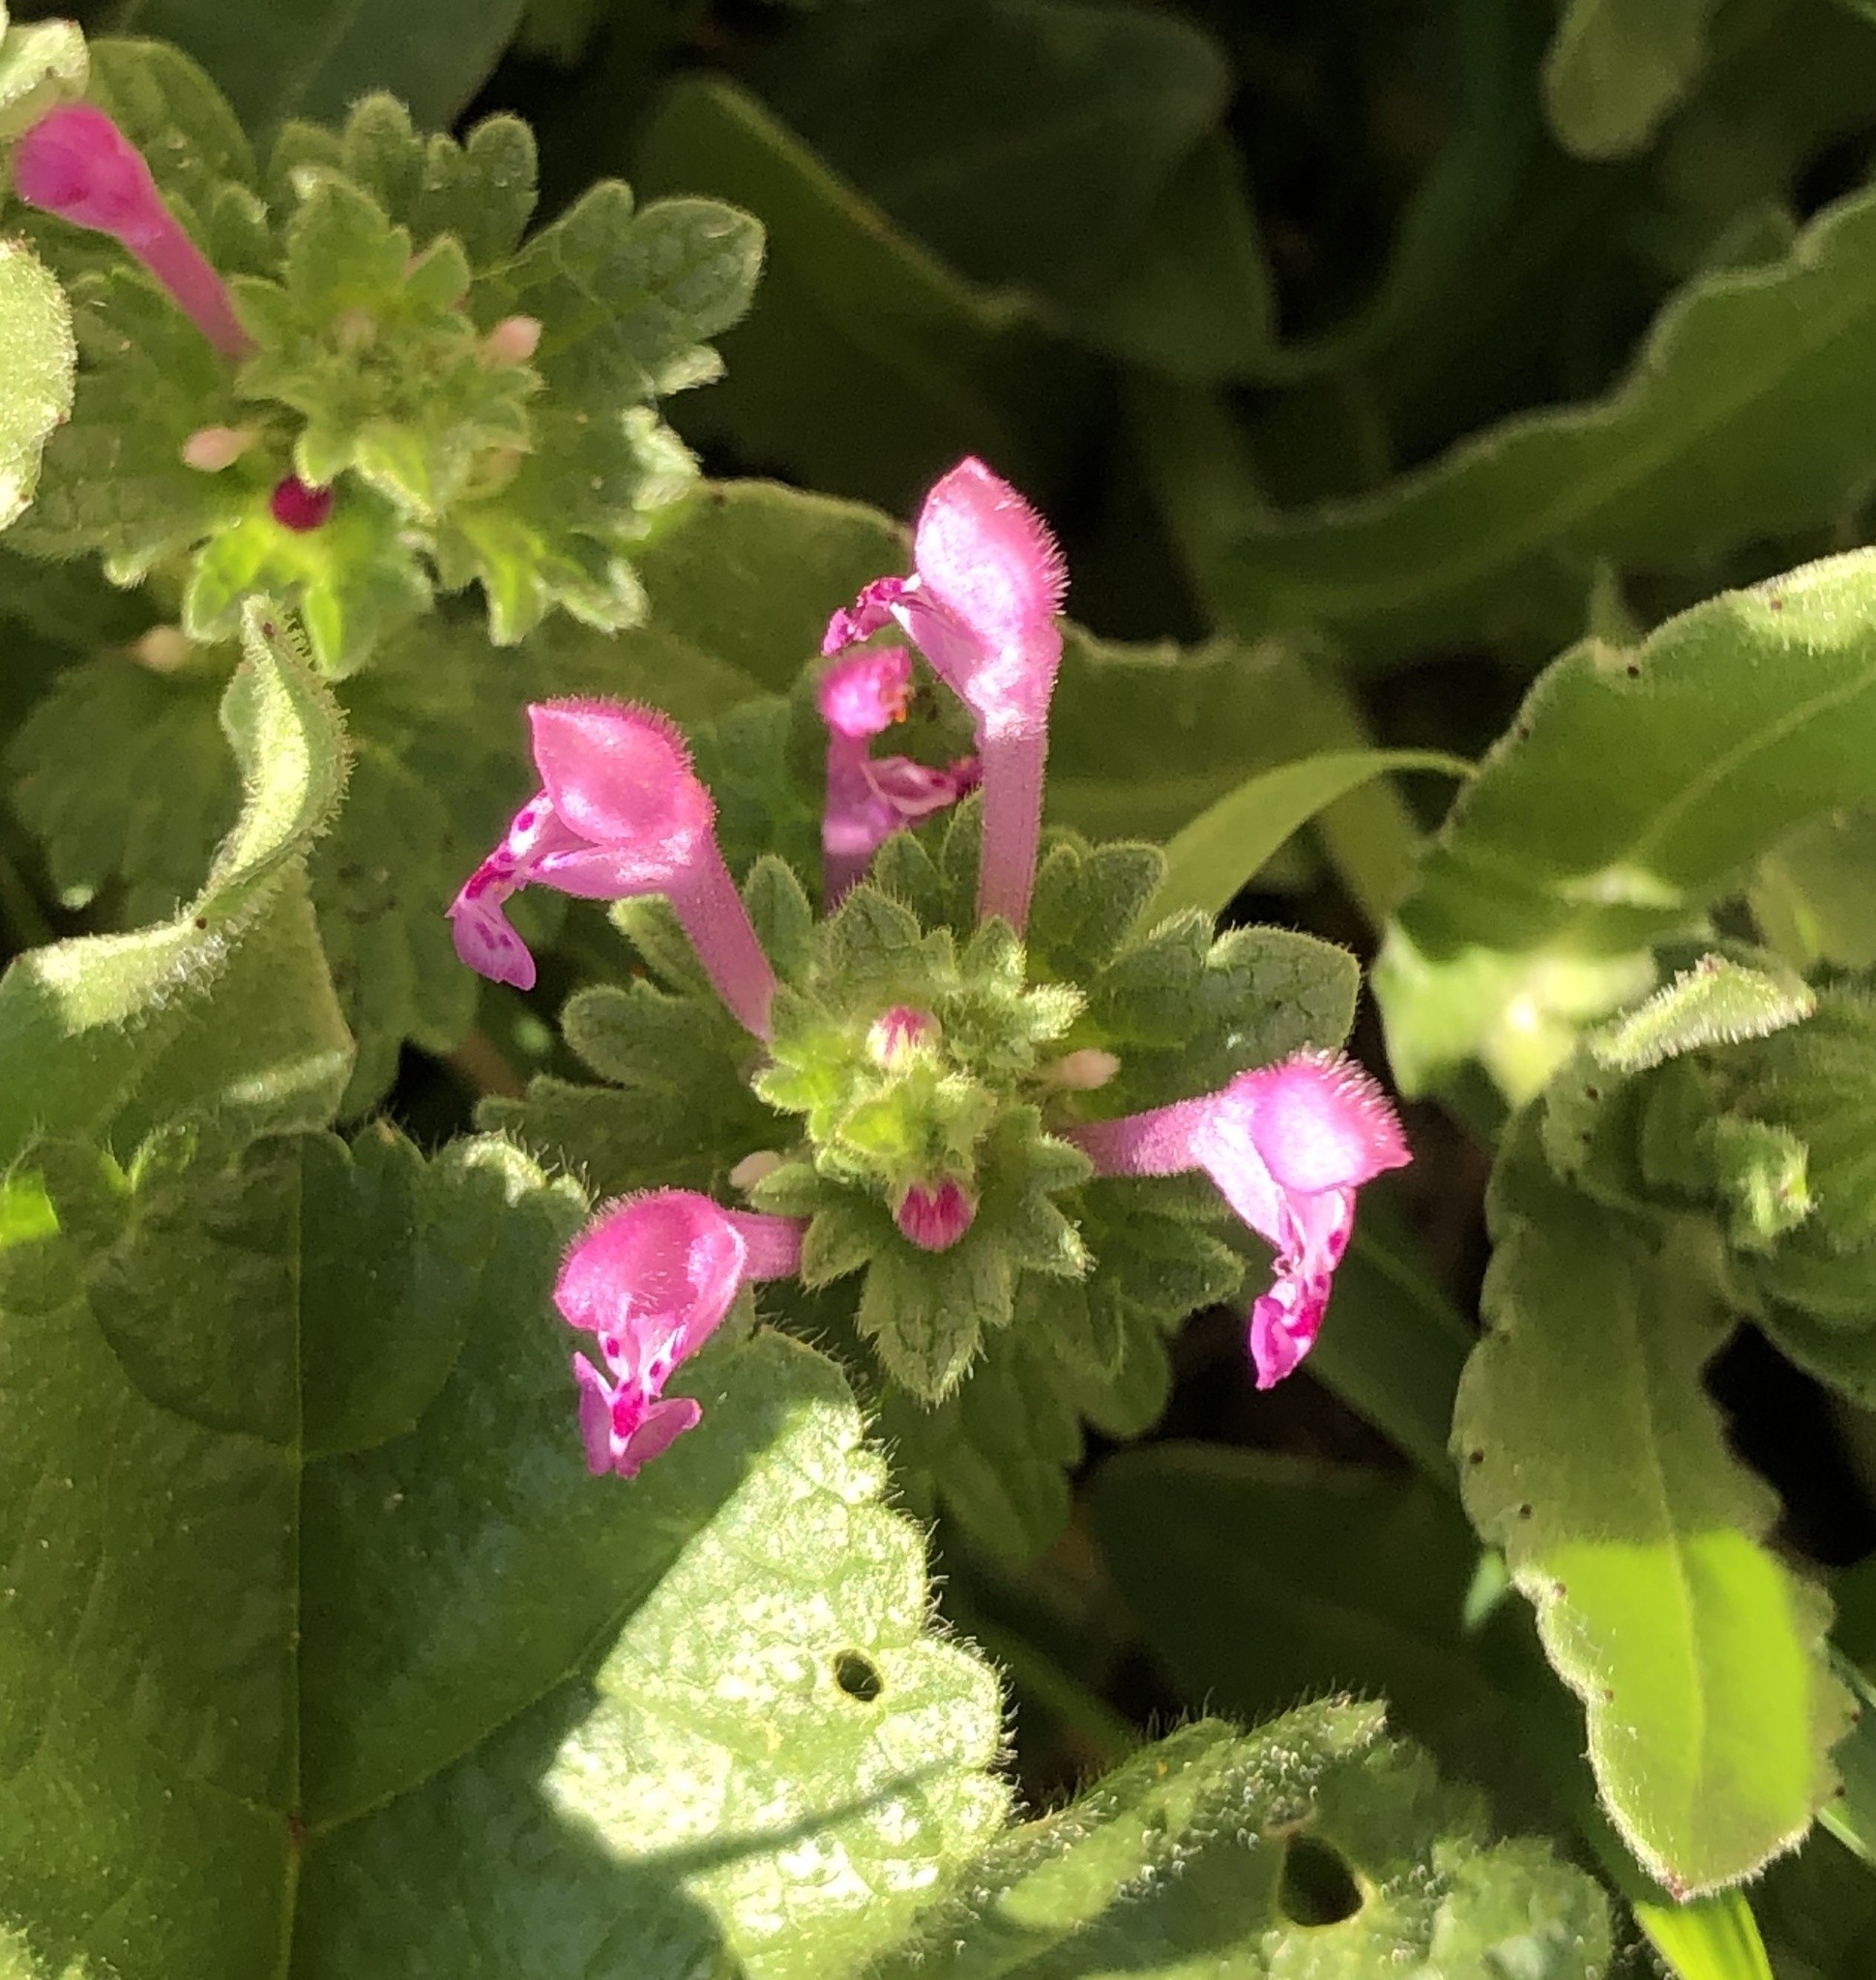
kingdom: Plantae
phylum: Tracheophyta
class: Magnoliopsida
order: Lamiales
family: Lamiaceae
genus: Lamium
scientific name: Lamium amplexicaule
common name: Henbit dead-nettle
